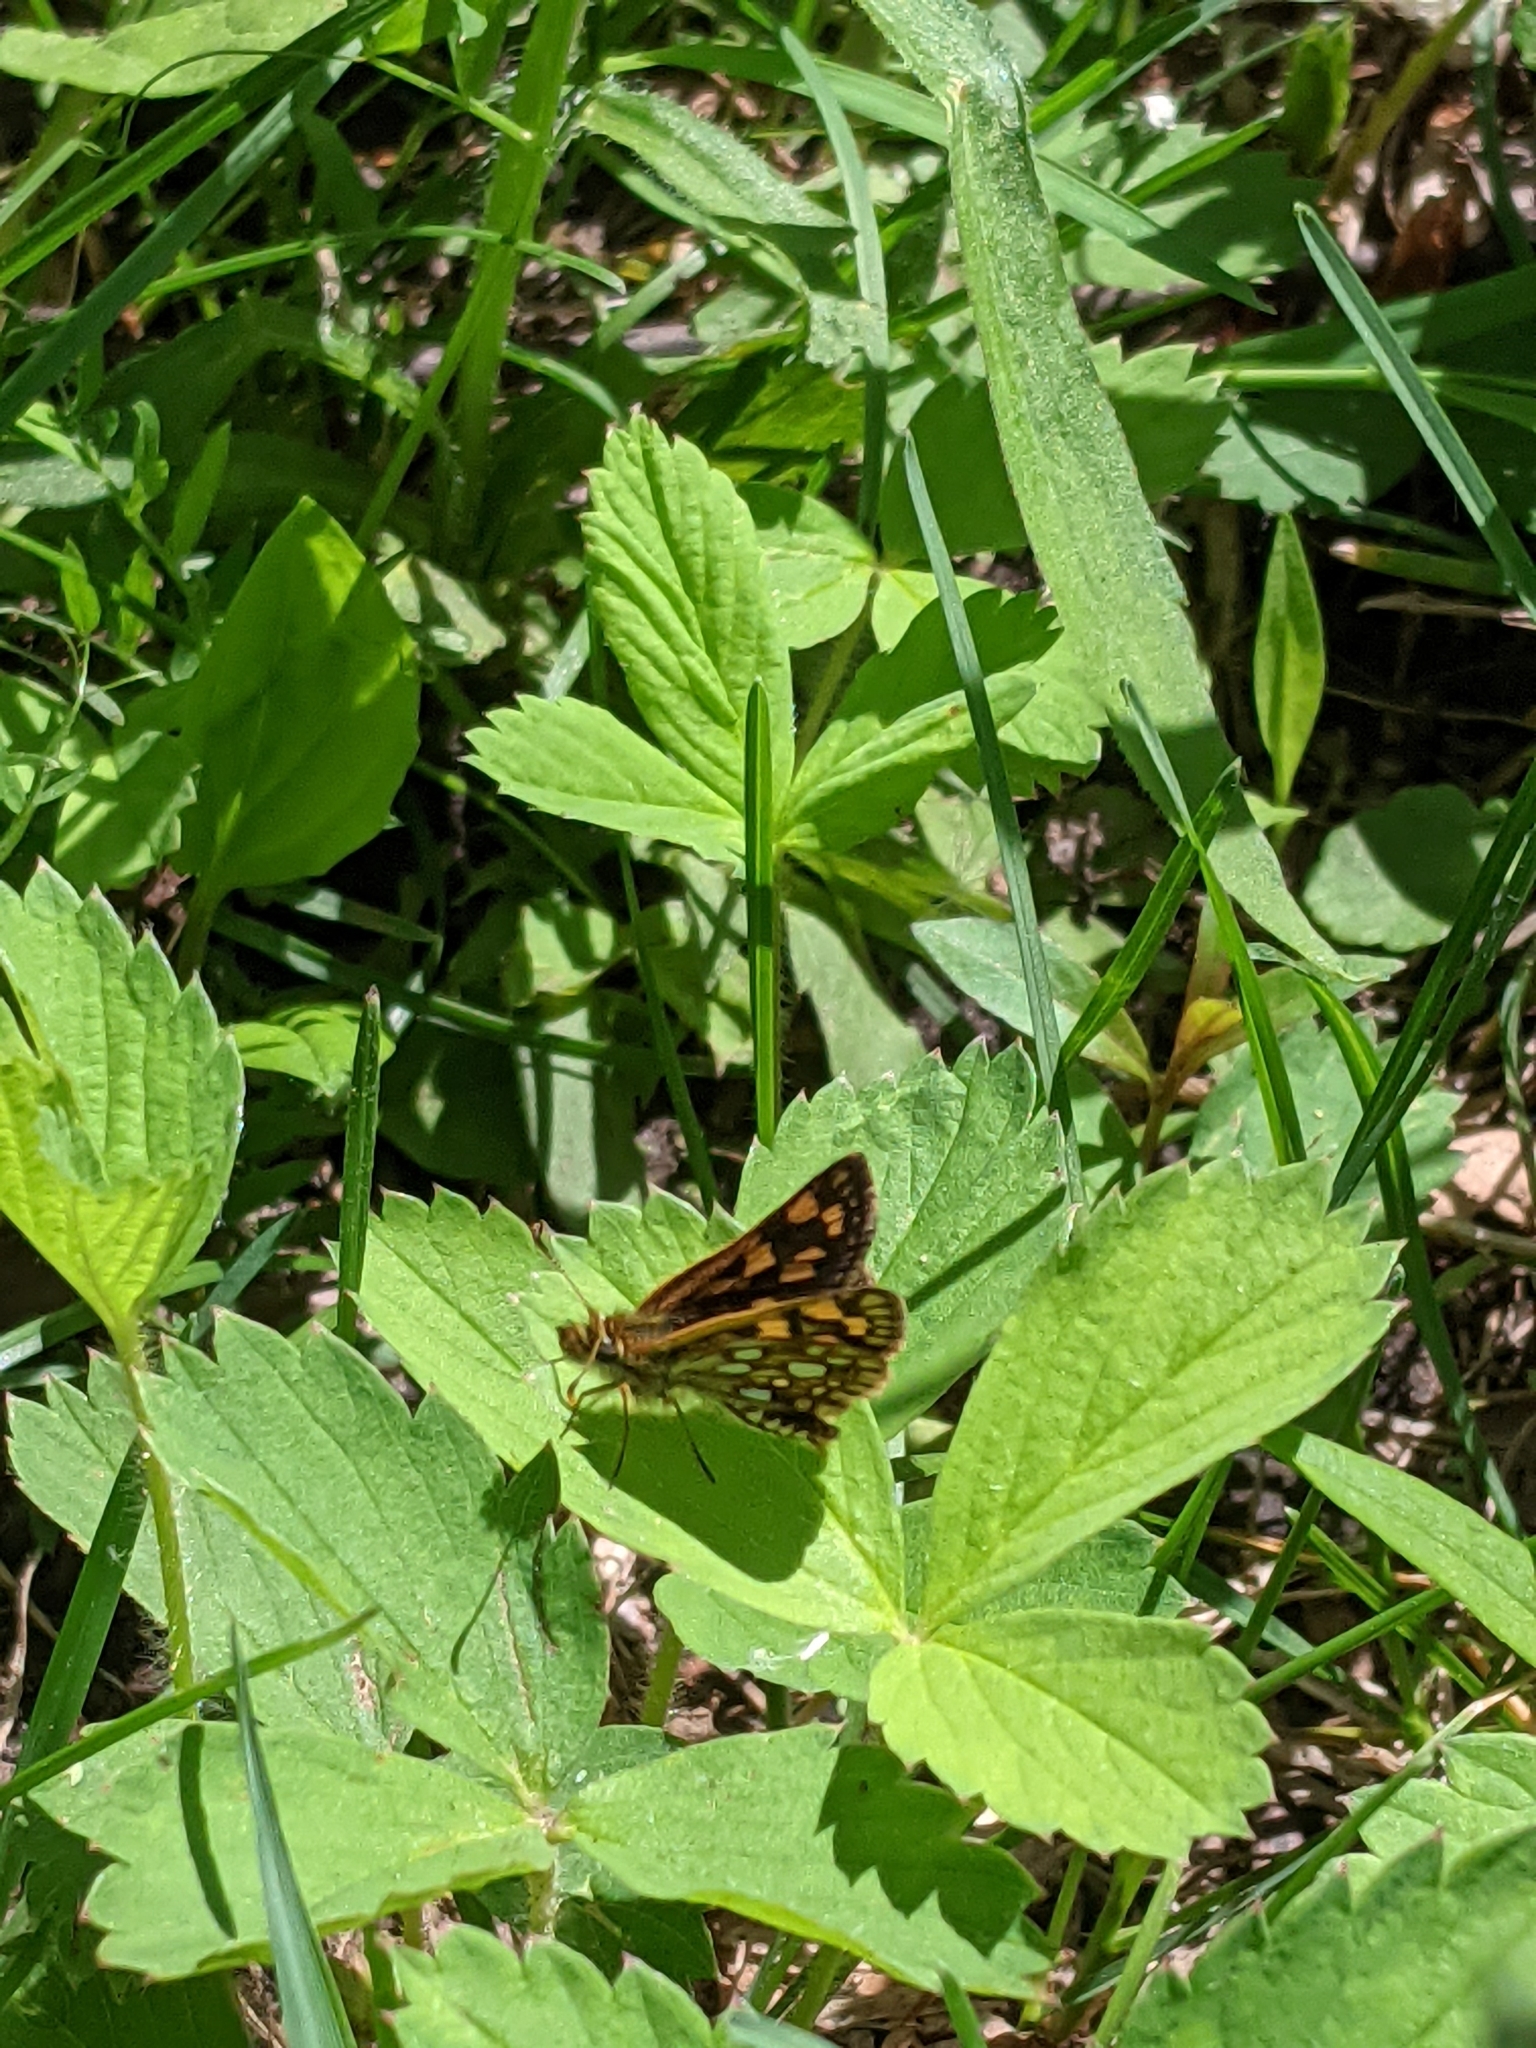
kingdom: Animalia
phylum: Arthropoda
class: Insecta
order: Lepidoptera
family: Hesperiidae
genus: Carterocephalus
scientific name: Carterocephalus mandan
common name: Arctic skipperling
